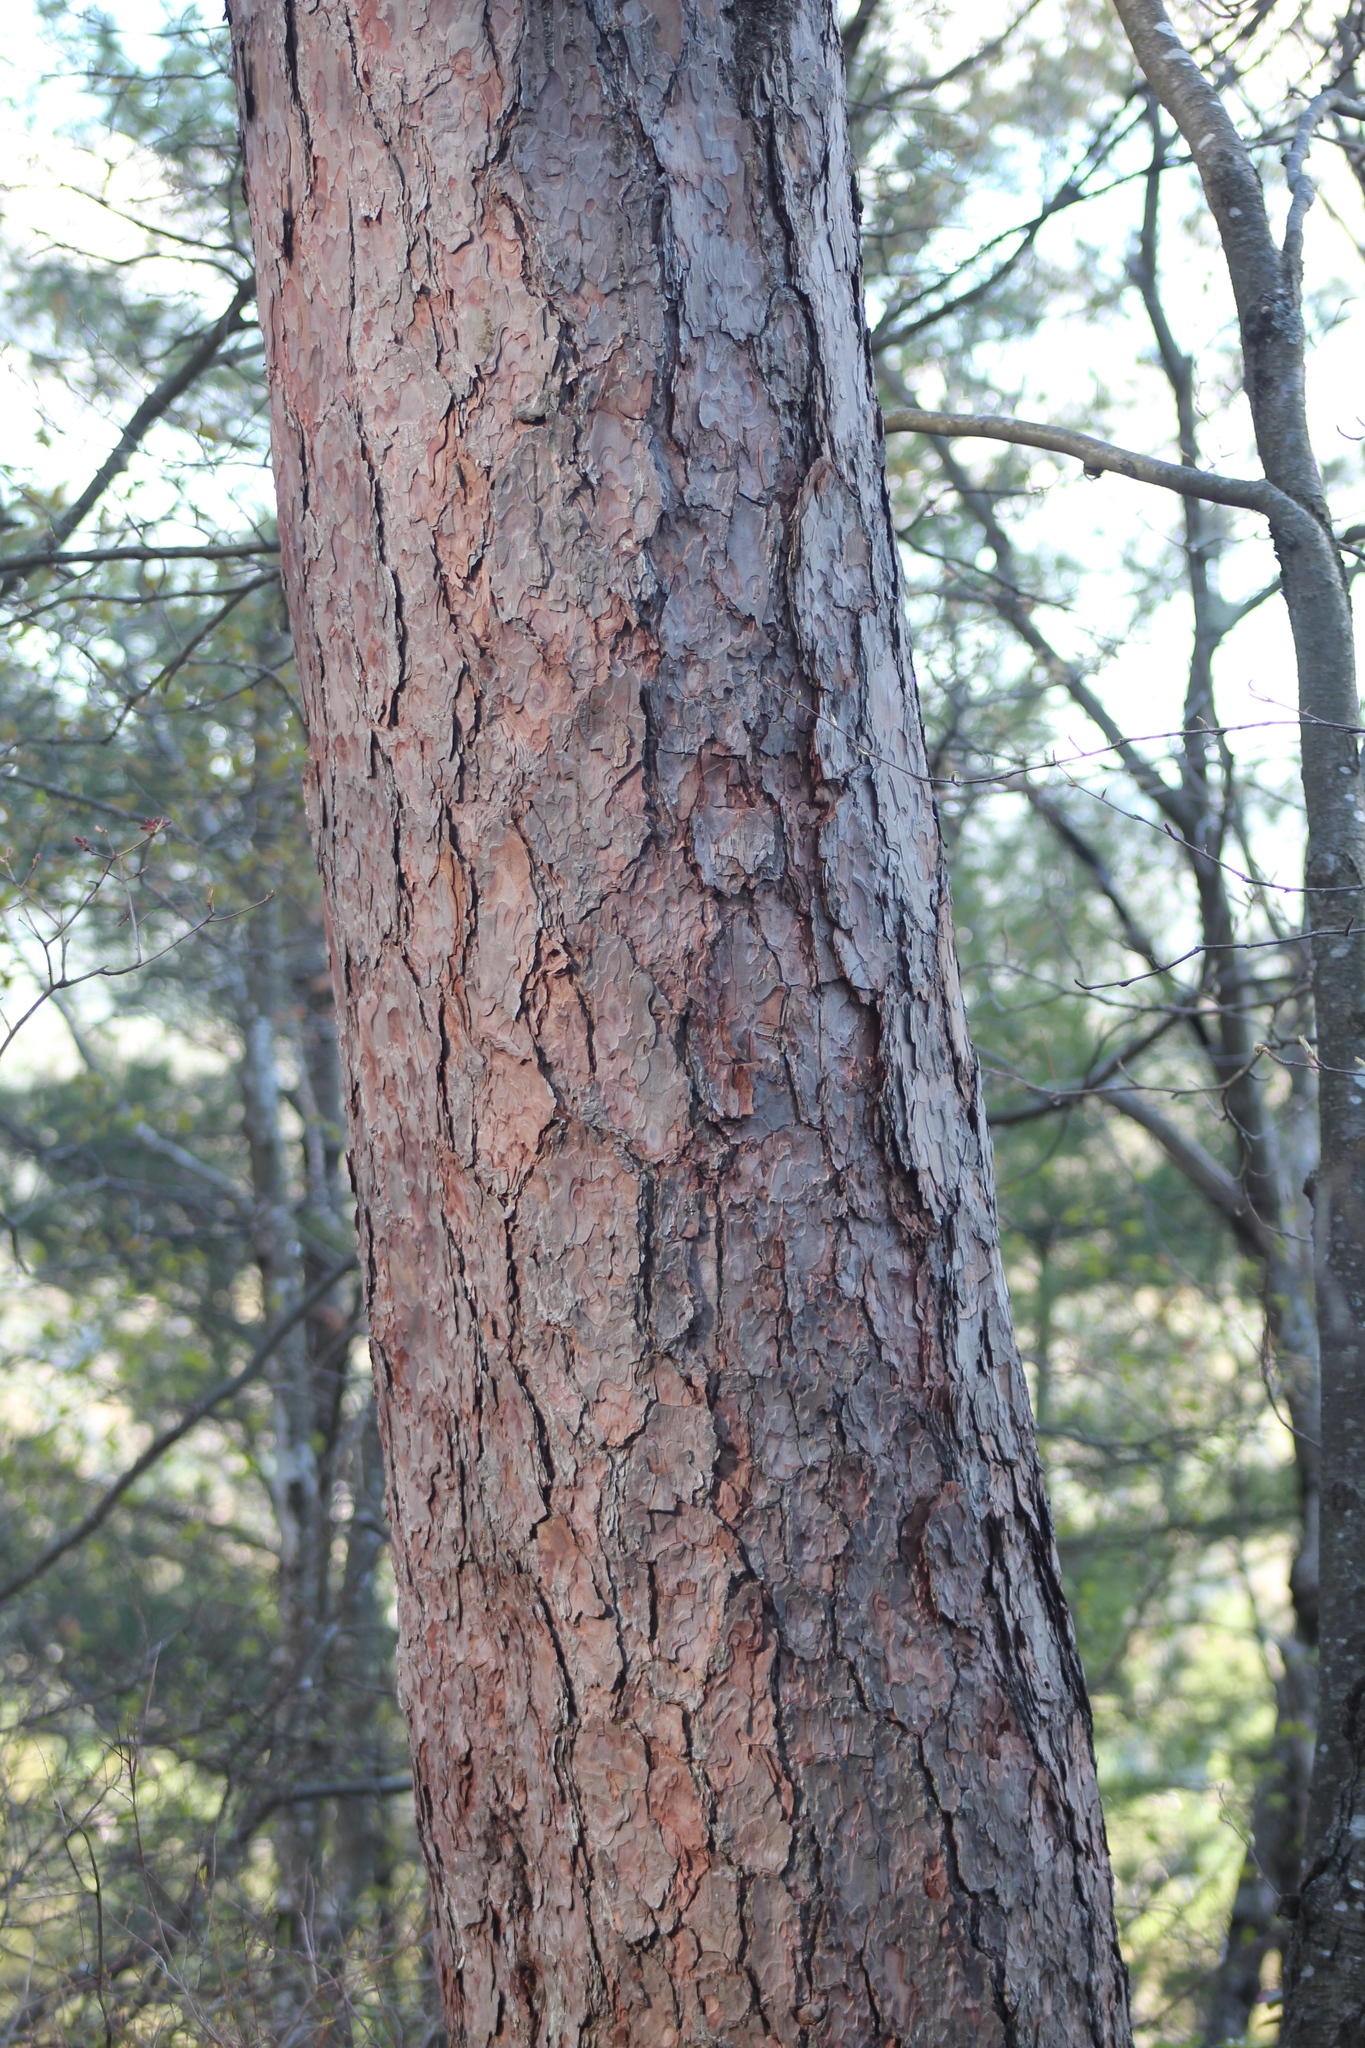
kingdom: Plantae
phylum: Tracheophyta
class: Pinopsida
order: Pinales
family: Pinaceae
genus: Pinus
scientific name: Pinus resinosa
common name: Norway pine
